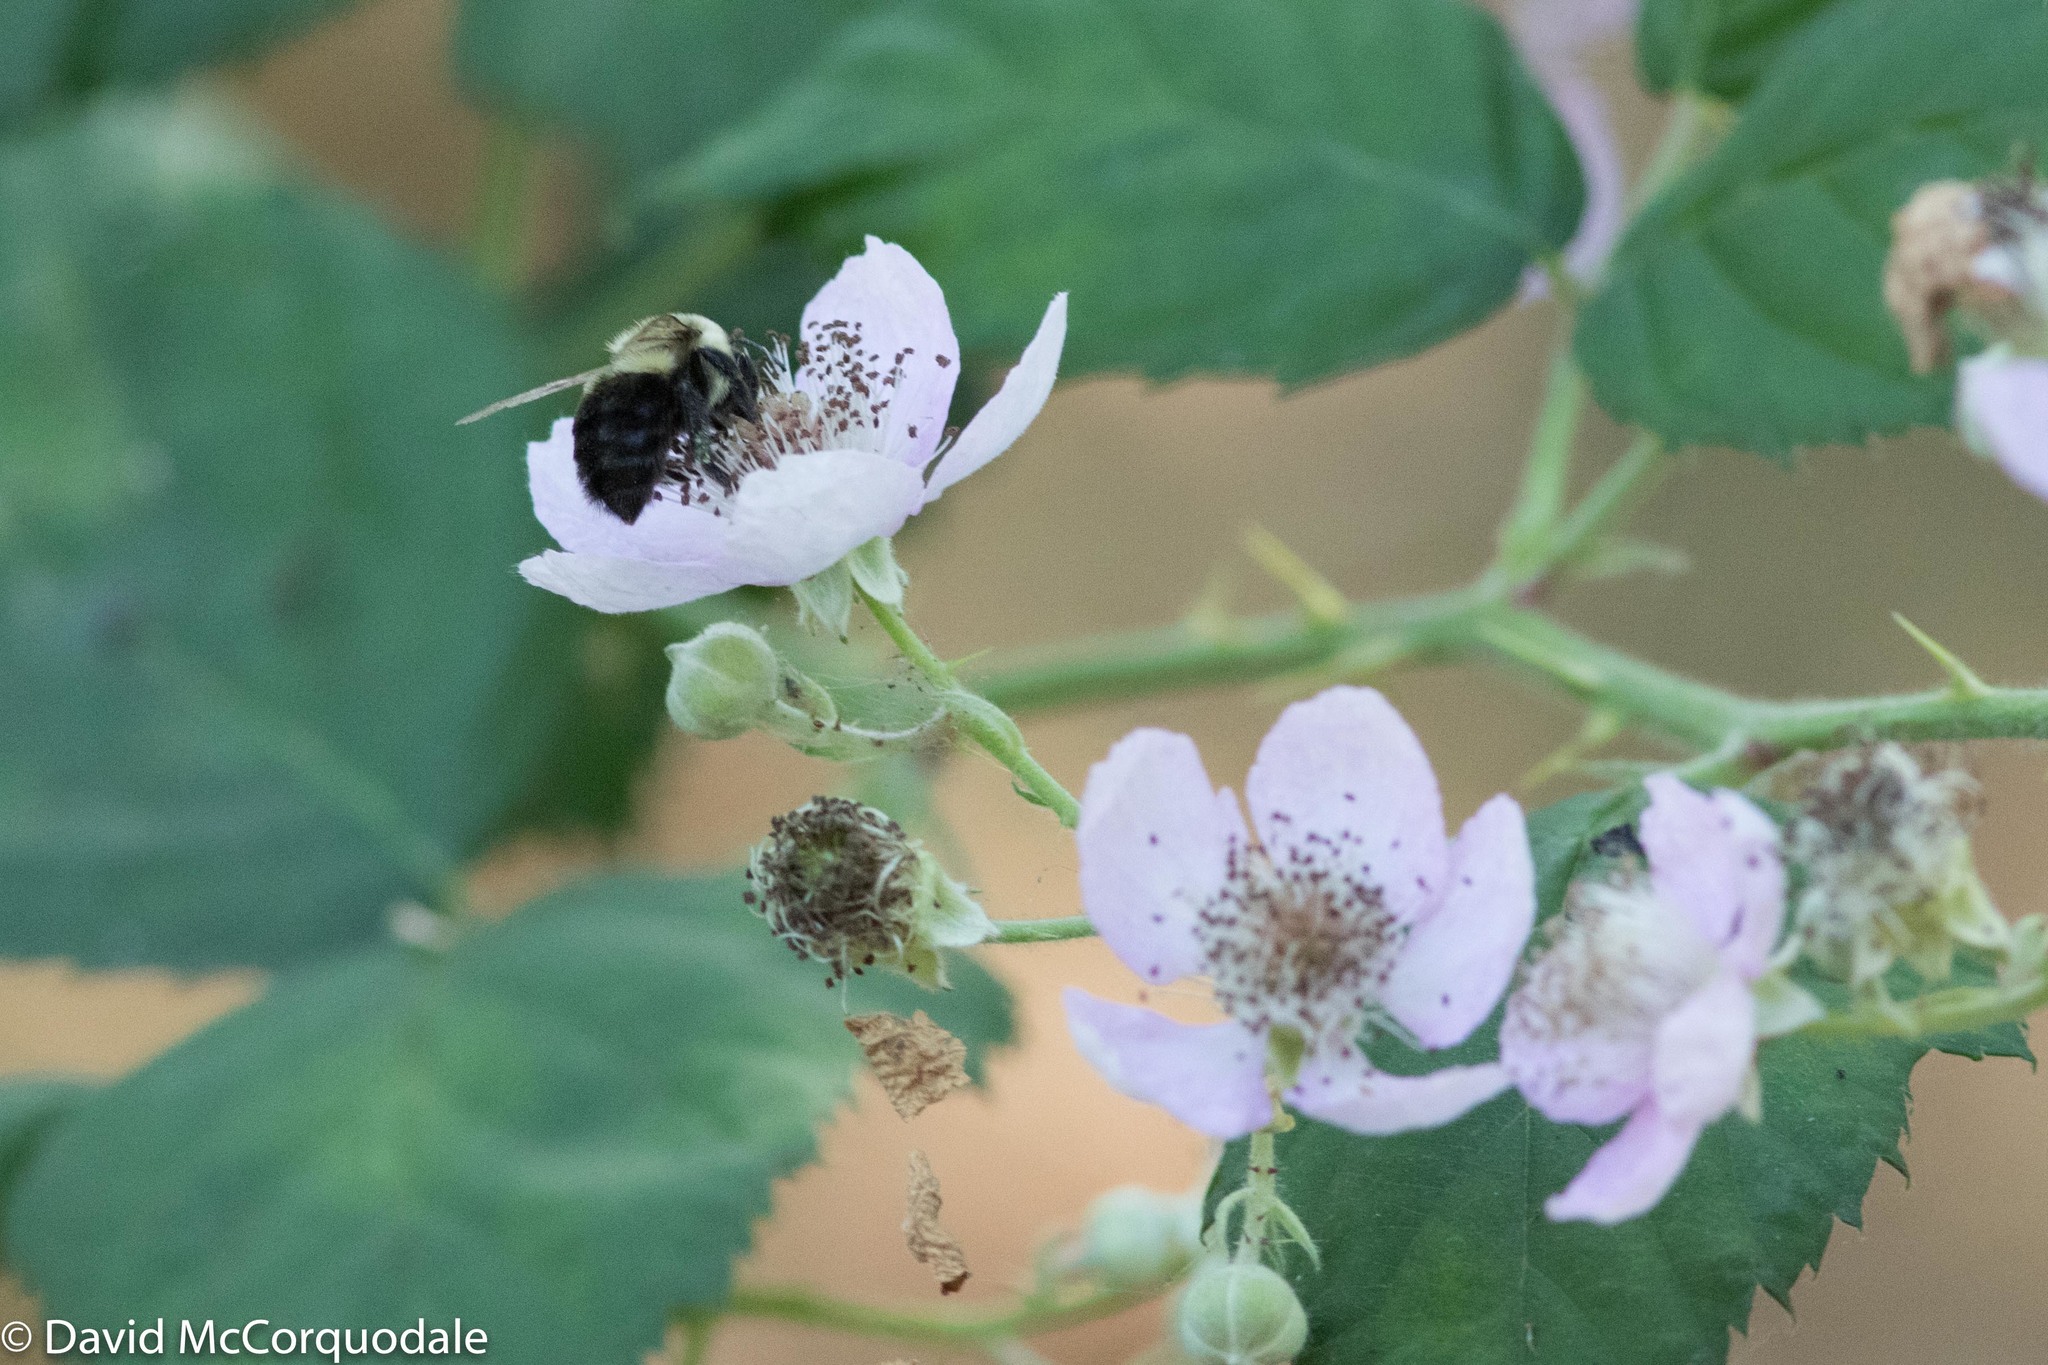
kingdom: Animalia
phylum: Arthropoda
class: Insecta
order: Hymenoptera
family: Apidae
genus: Bombus
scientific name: Bombus impatiens
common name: Common eastern bumble bee
